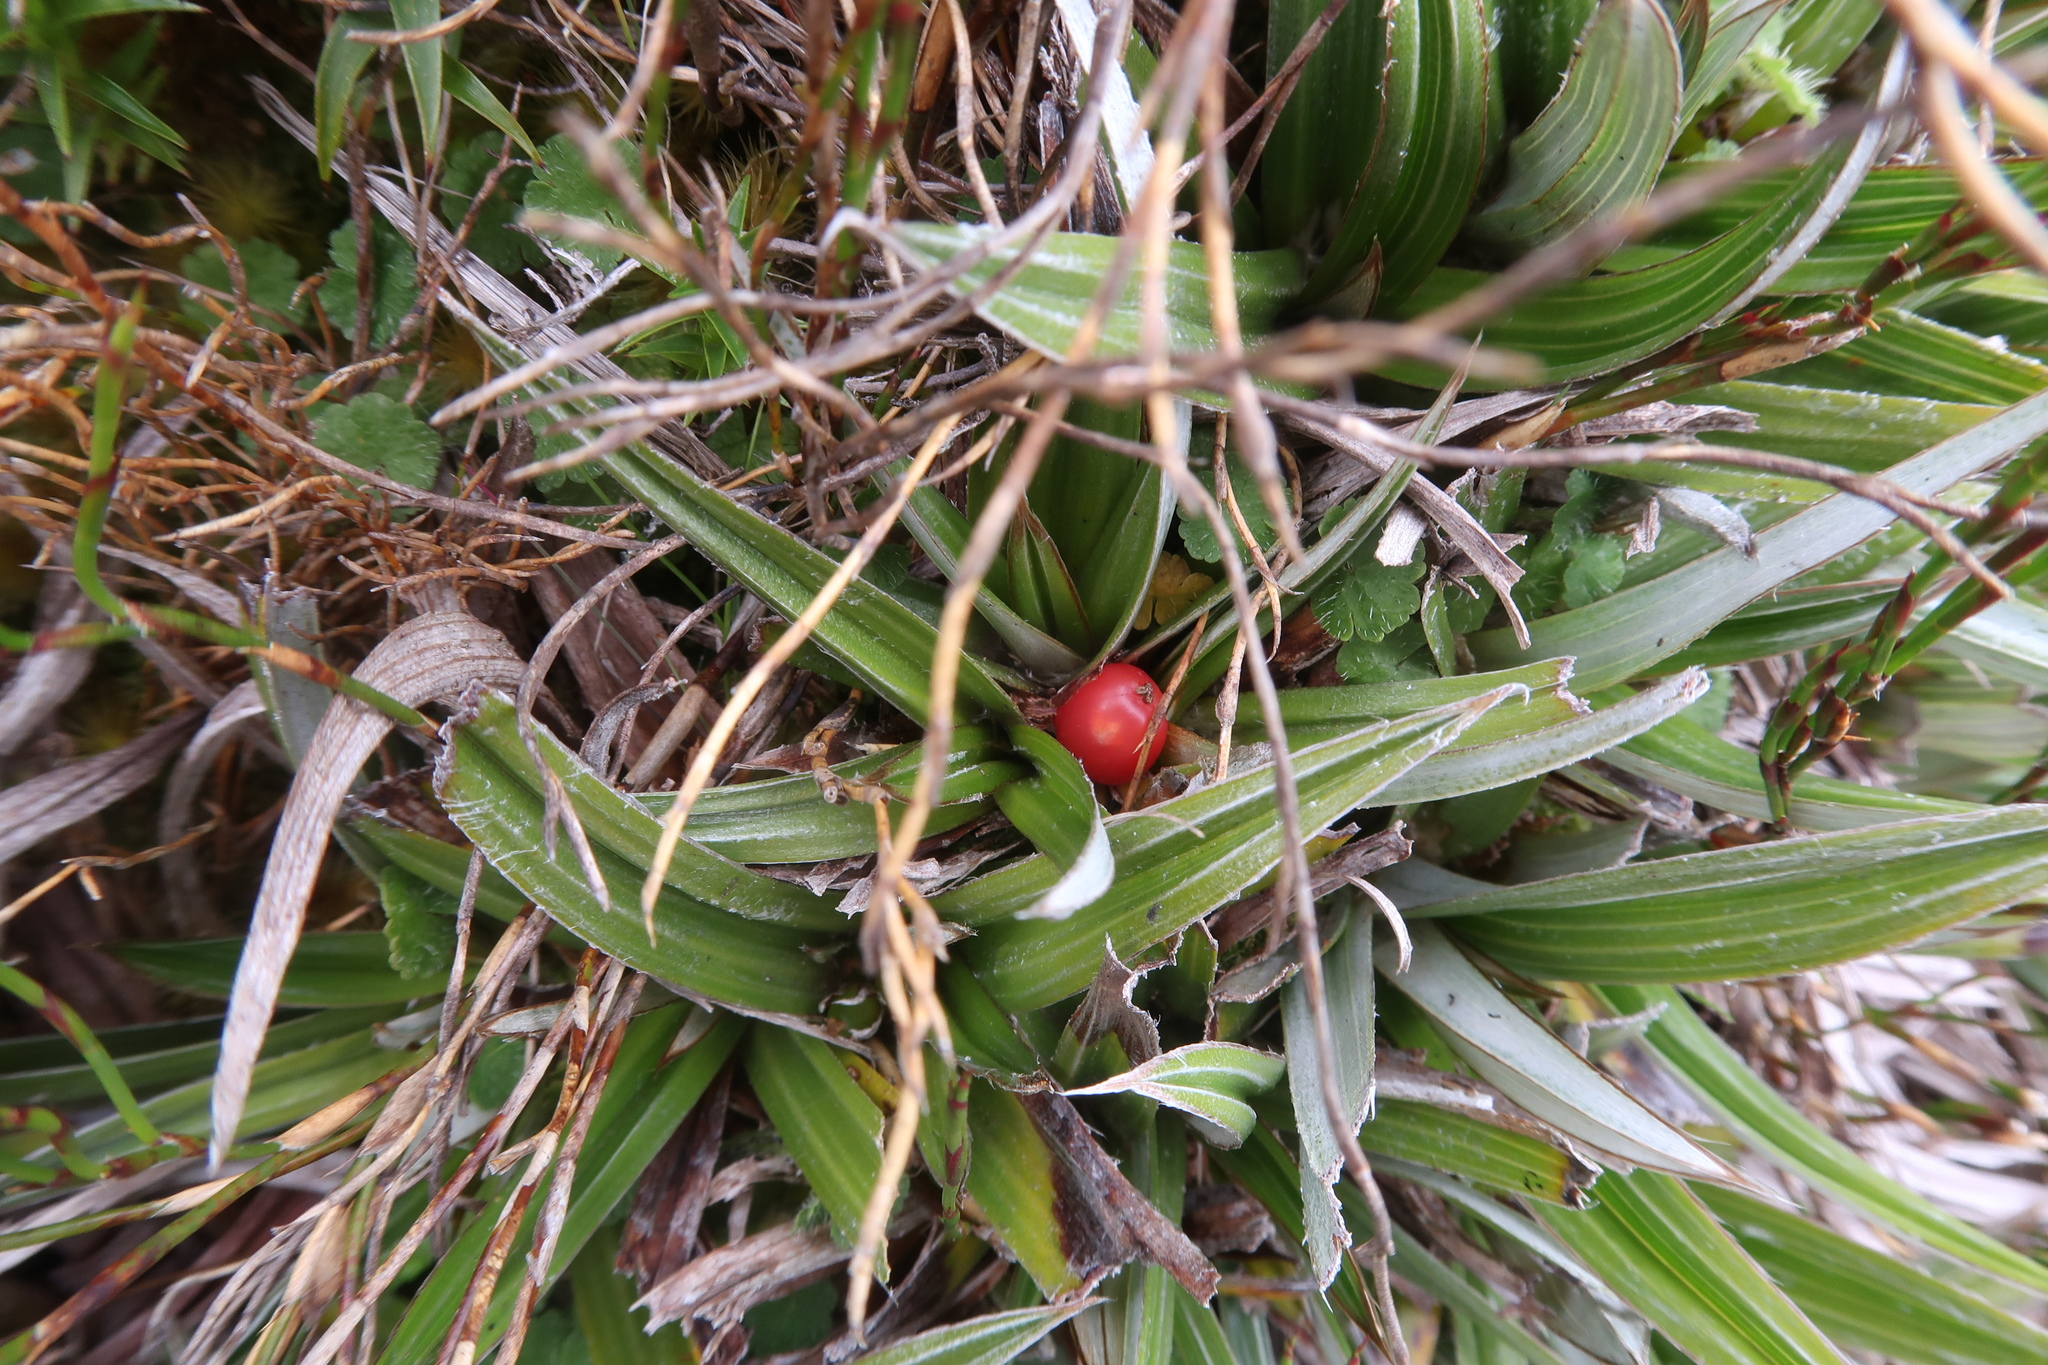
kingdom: Plantae
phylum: Tracheophyta
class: Liliopsida
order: Asparagales
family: Asteliaceae
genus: Astelia
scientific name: Astelia alpina
